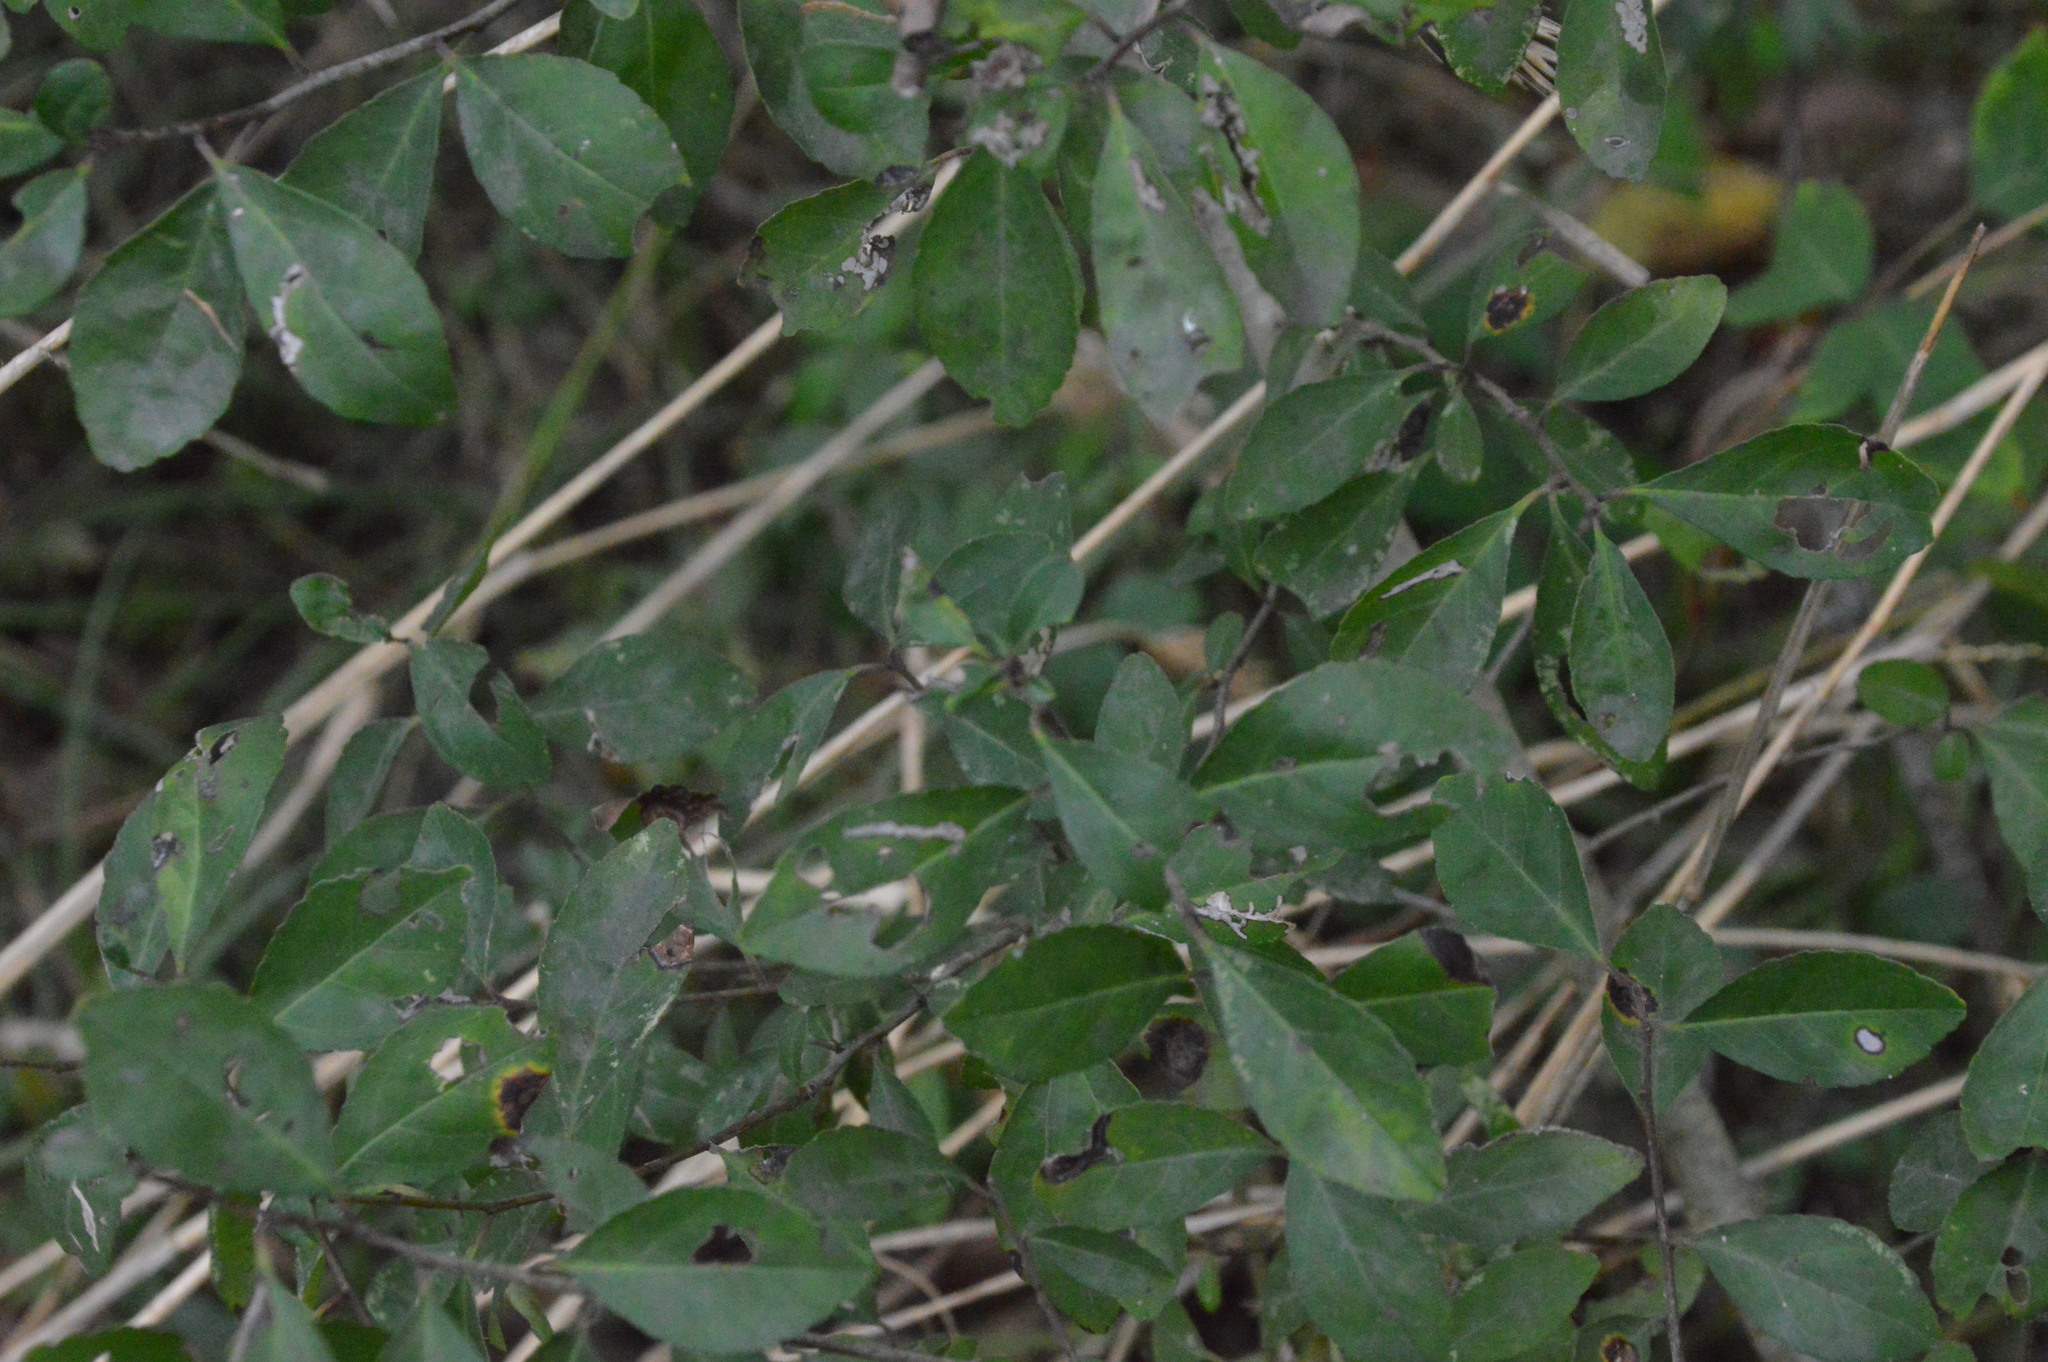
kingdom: Plantae
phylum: Tracheophyta
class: Magnoliopsida
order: Aquifoliales
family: Aquifoliaceae
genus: Ilex
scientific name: Ilex decidua
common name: Possum-haw
